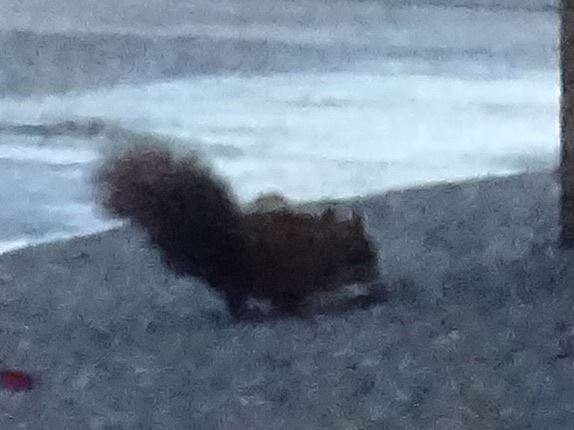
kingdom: Animalia
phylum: Chordata
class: Mammalia
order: Rodentia
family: Sciuridae
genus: Sciurus
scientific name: Sciurus vulgaris
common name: Eurasian red squirrel
